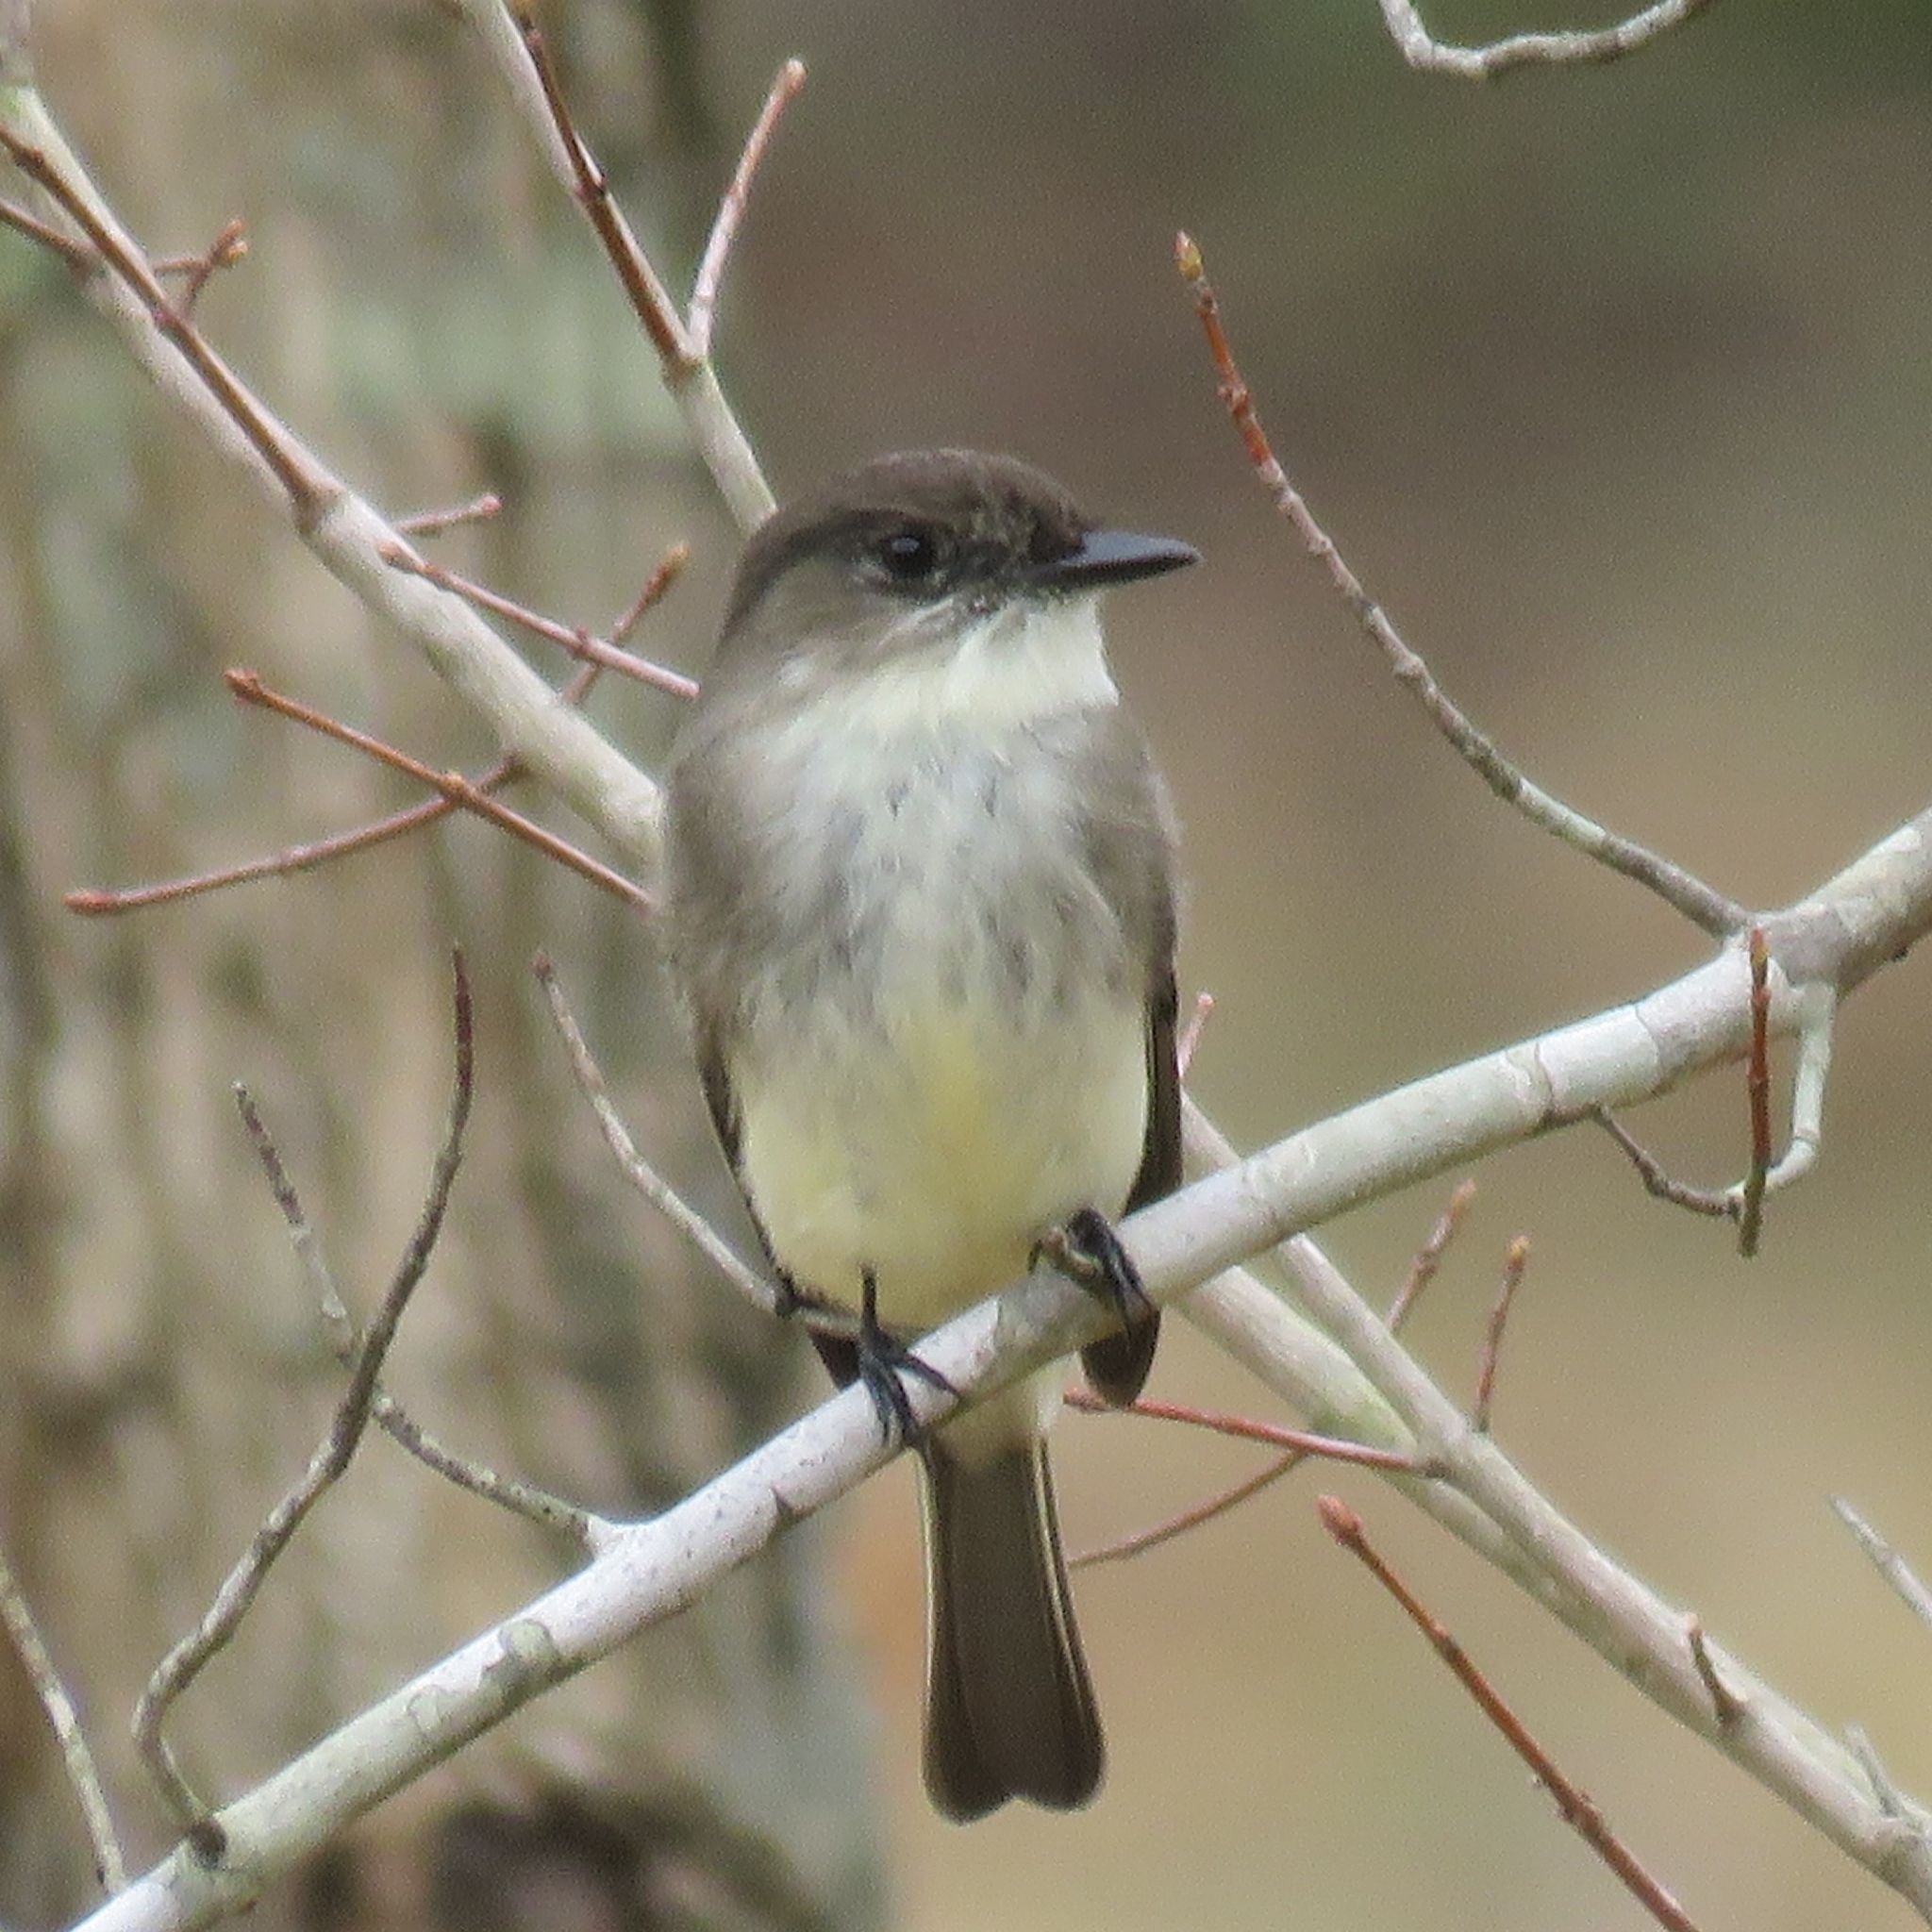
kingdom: Animalia
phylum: Chordata
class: Aves
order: Passeriformes
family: Tyrannidae
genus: Sayornis
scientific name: Sayornis phoebe
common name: Eastern phoebe
